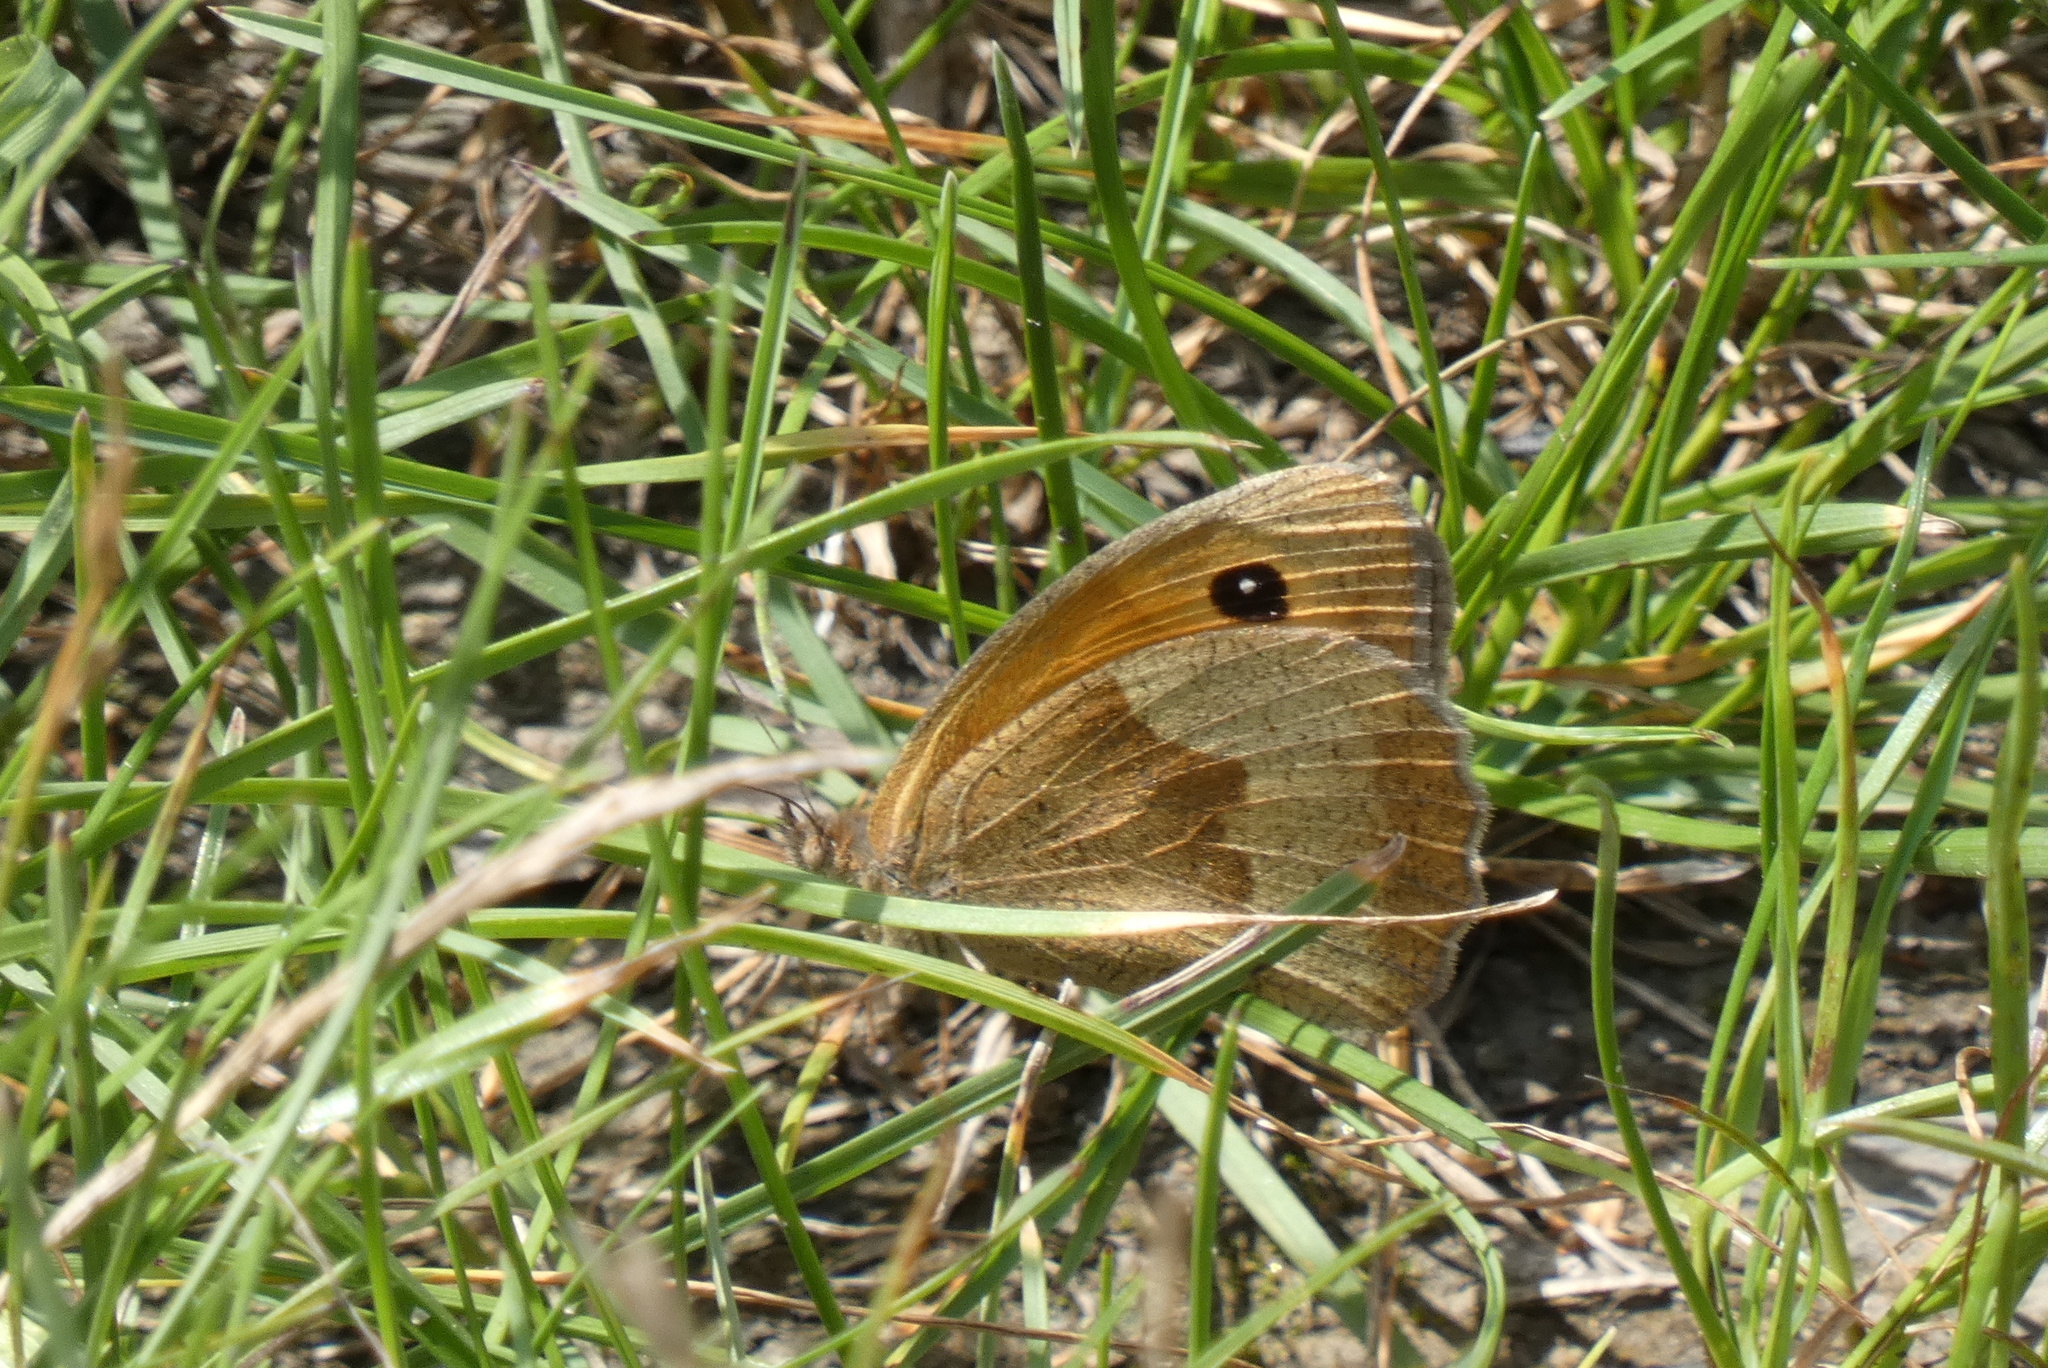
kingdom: Animalia
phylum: Arthropoda
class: Insecta
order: Lepidoptera
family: Nymphalidae
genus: Maniola
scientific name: Maniola jurtina
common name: Meadow brown
